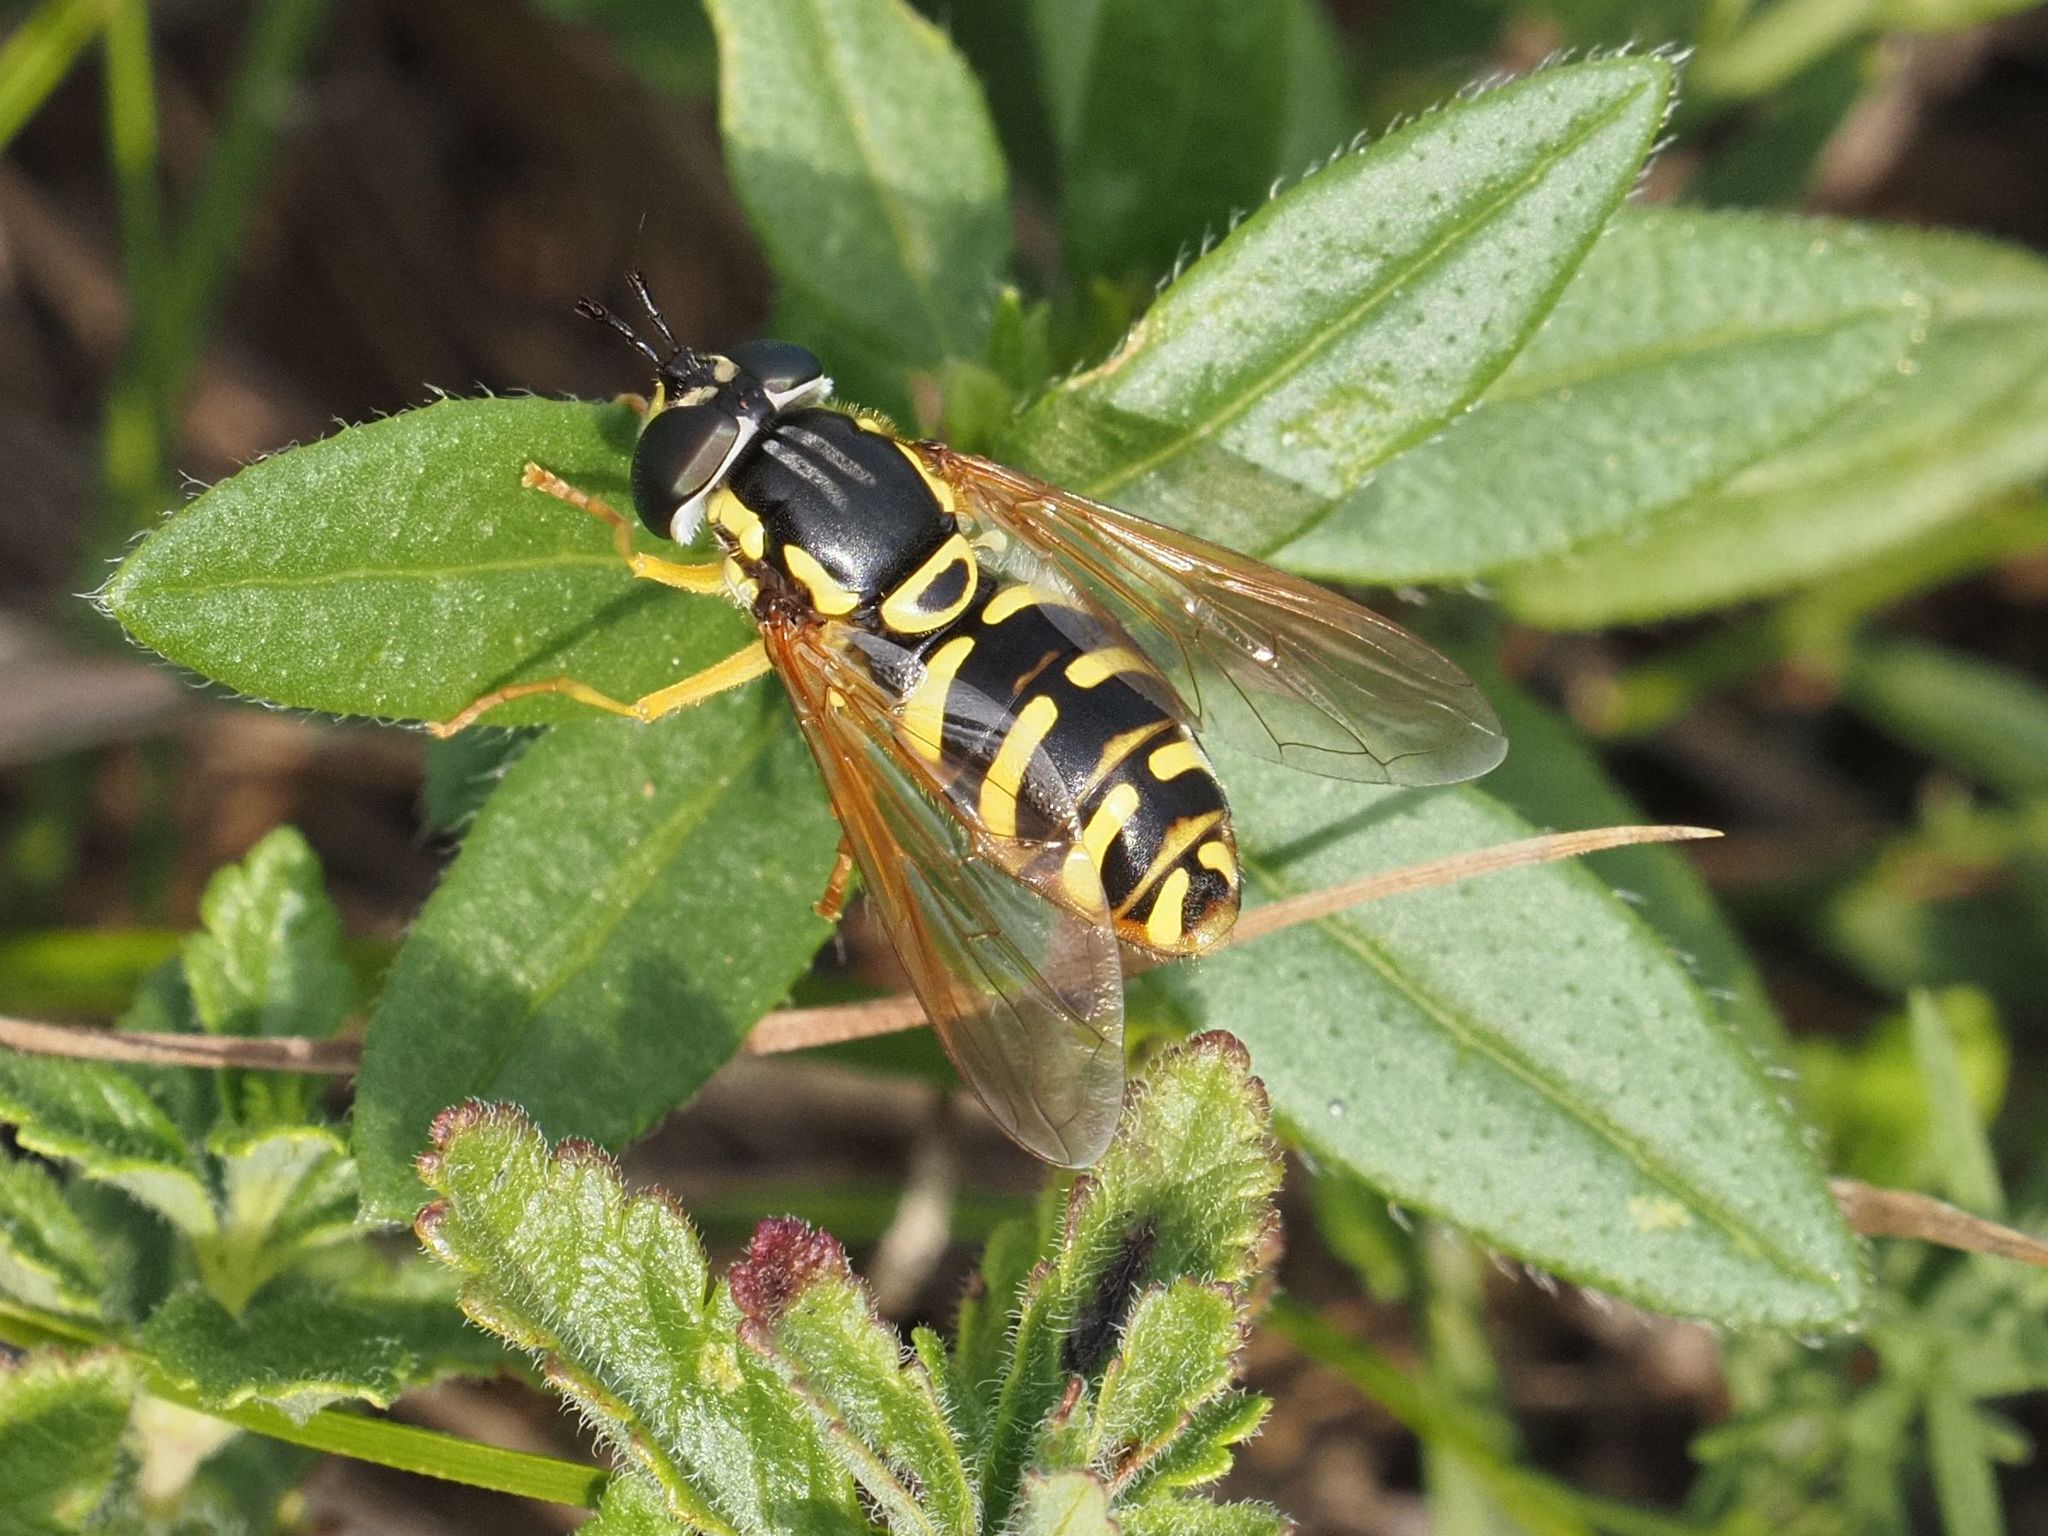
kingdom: Animalia
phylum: Arthropoda
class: Insecta
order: Diptera
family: Syrphidae
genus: Chrysotoxum
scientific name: Chrysotoxum elegans
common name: Zipperback
